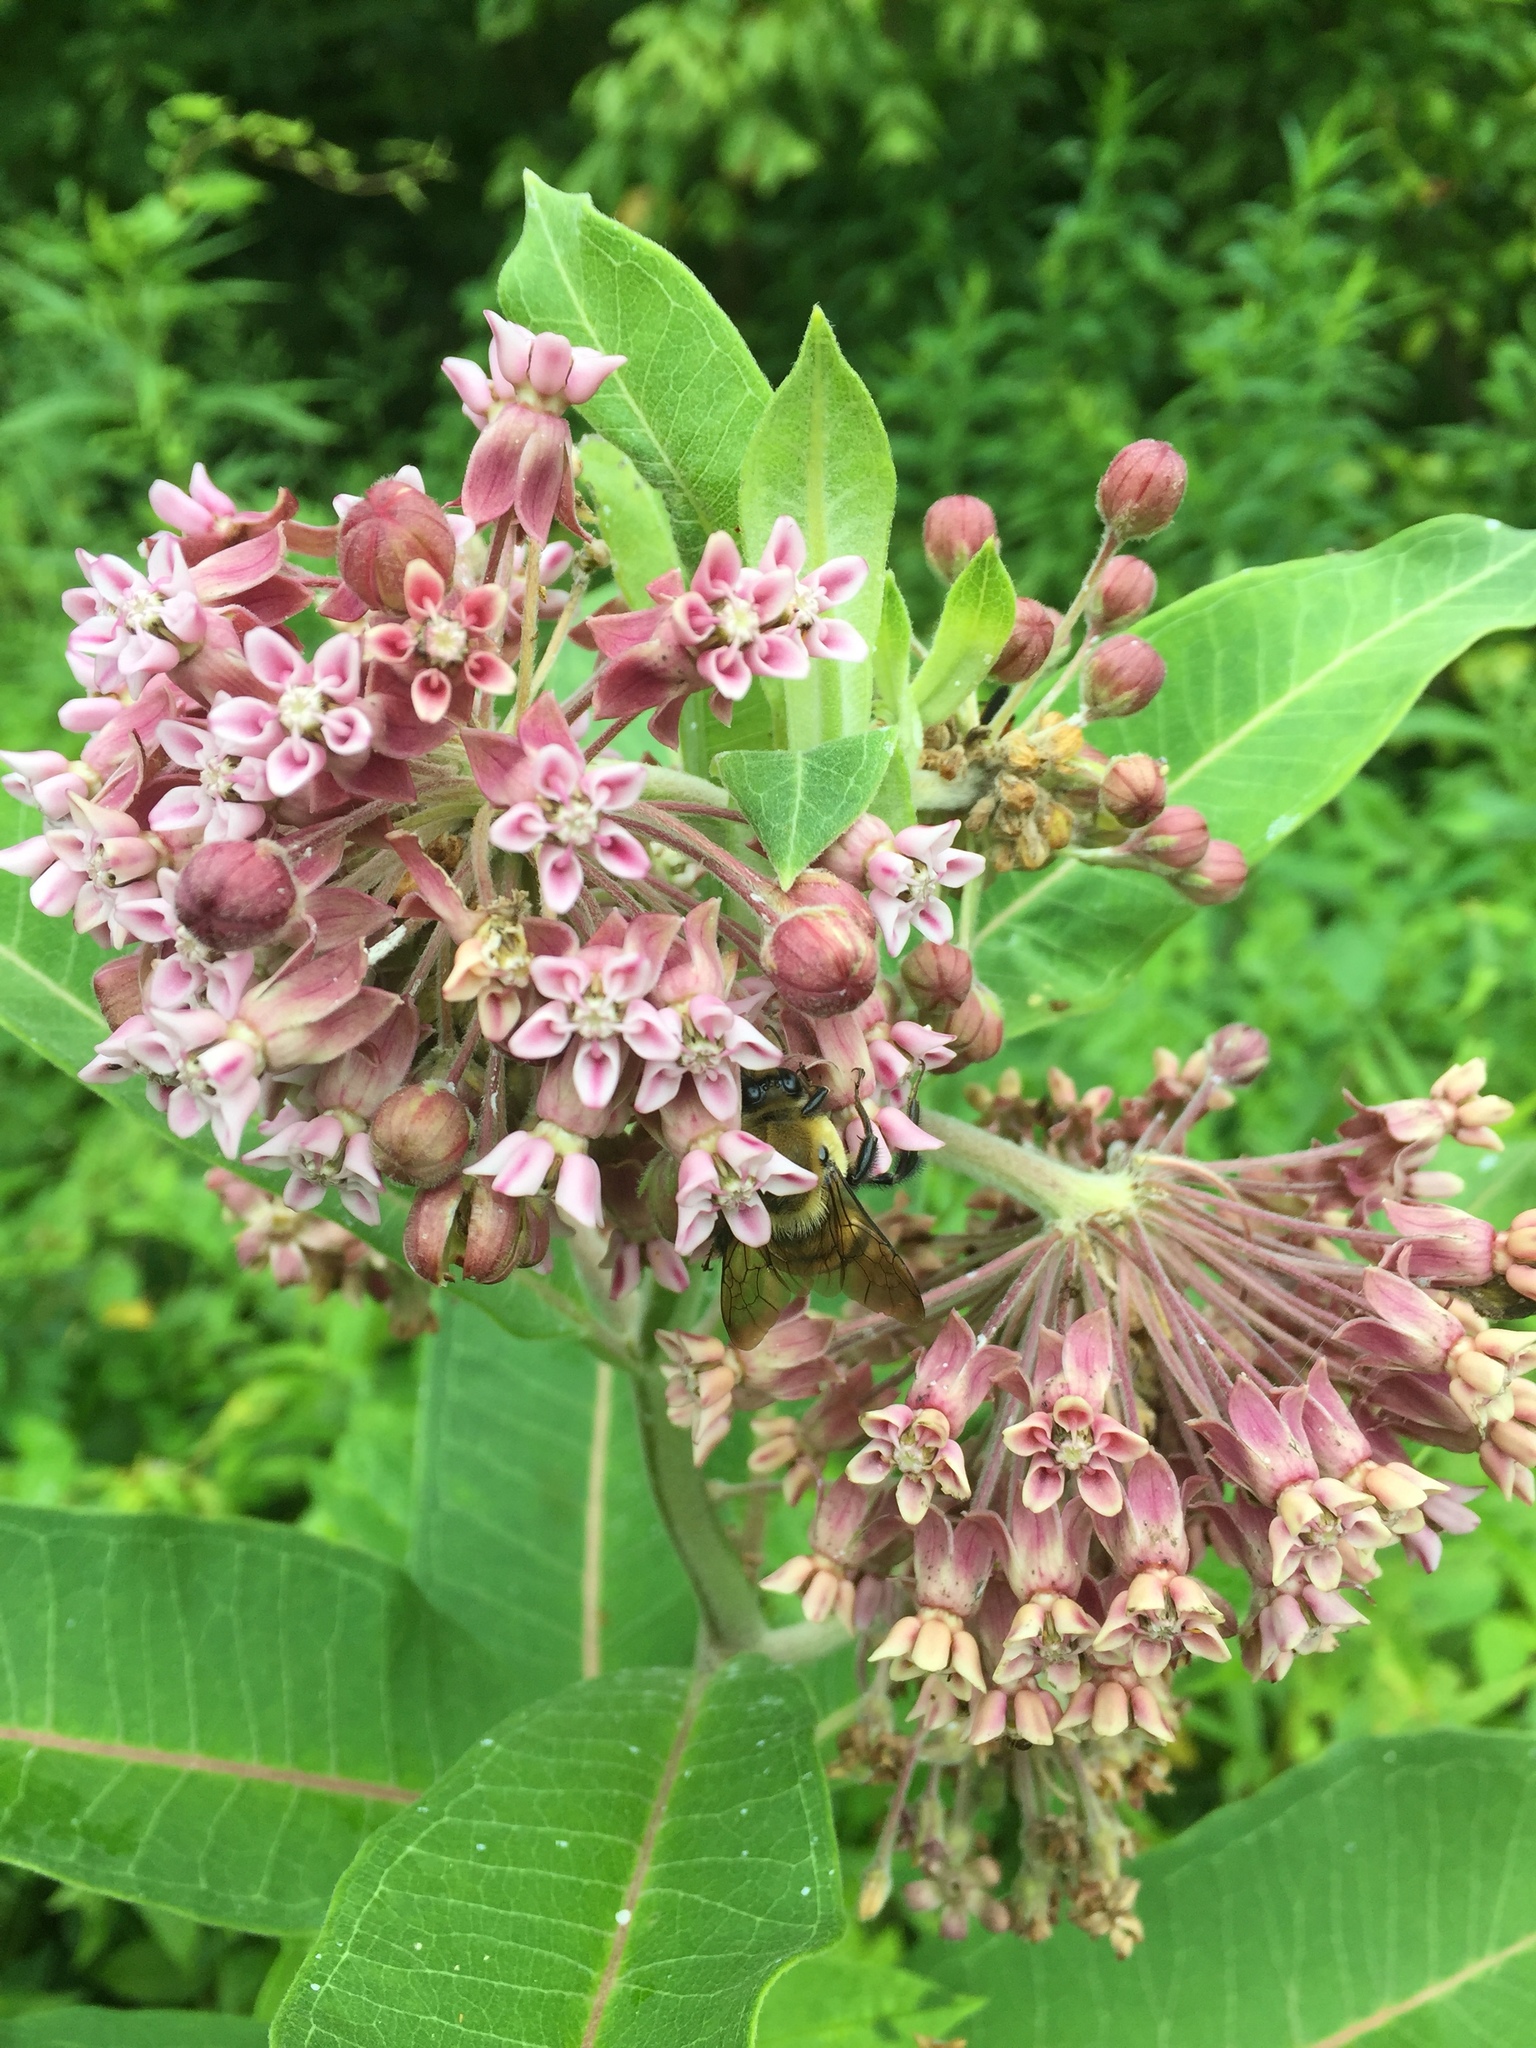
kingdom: Plantae
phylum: Tracheophyta
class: Magnoliopsida
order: Gentianales
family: Apocynaceae
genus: Asclepias
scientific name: Asclepias syriaca
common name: Common milkweed
